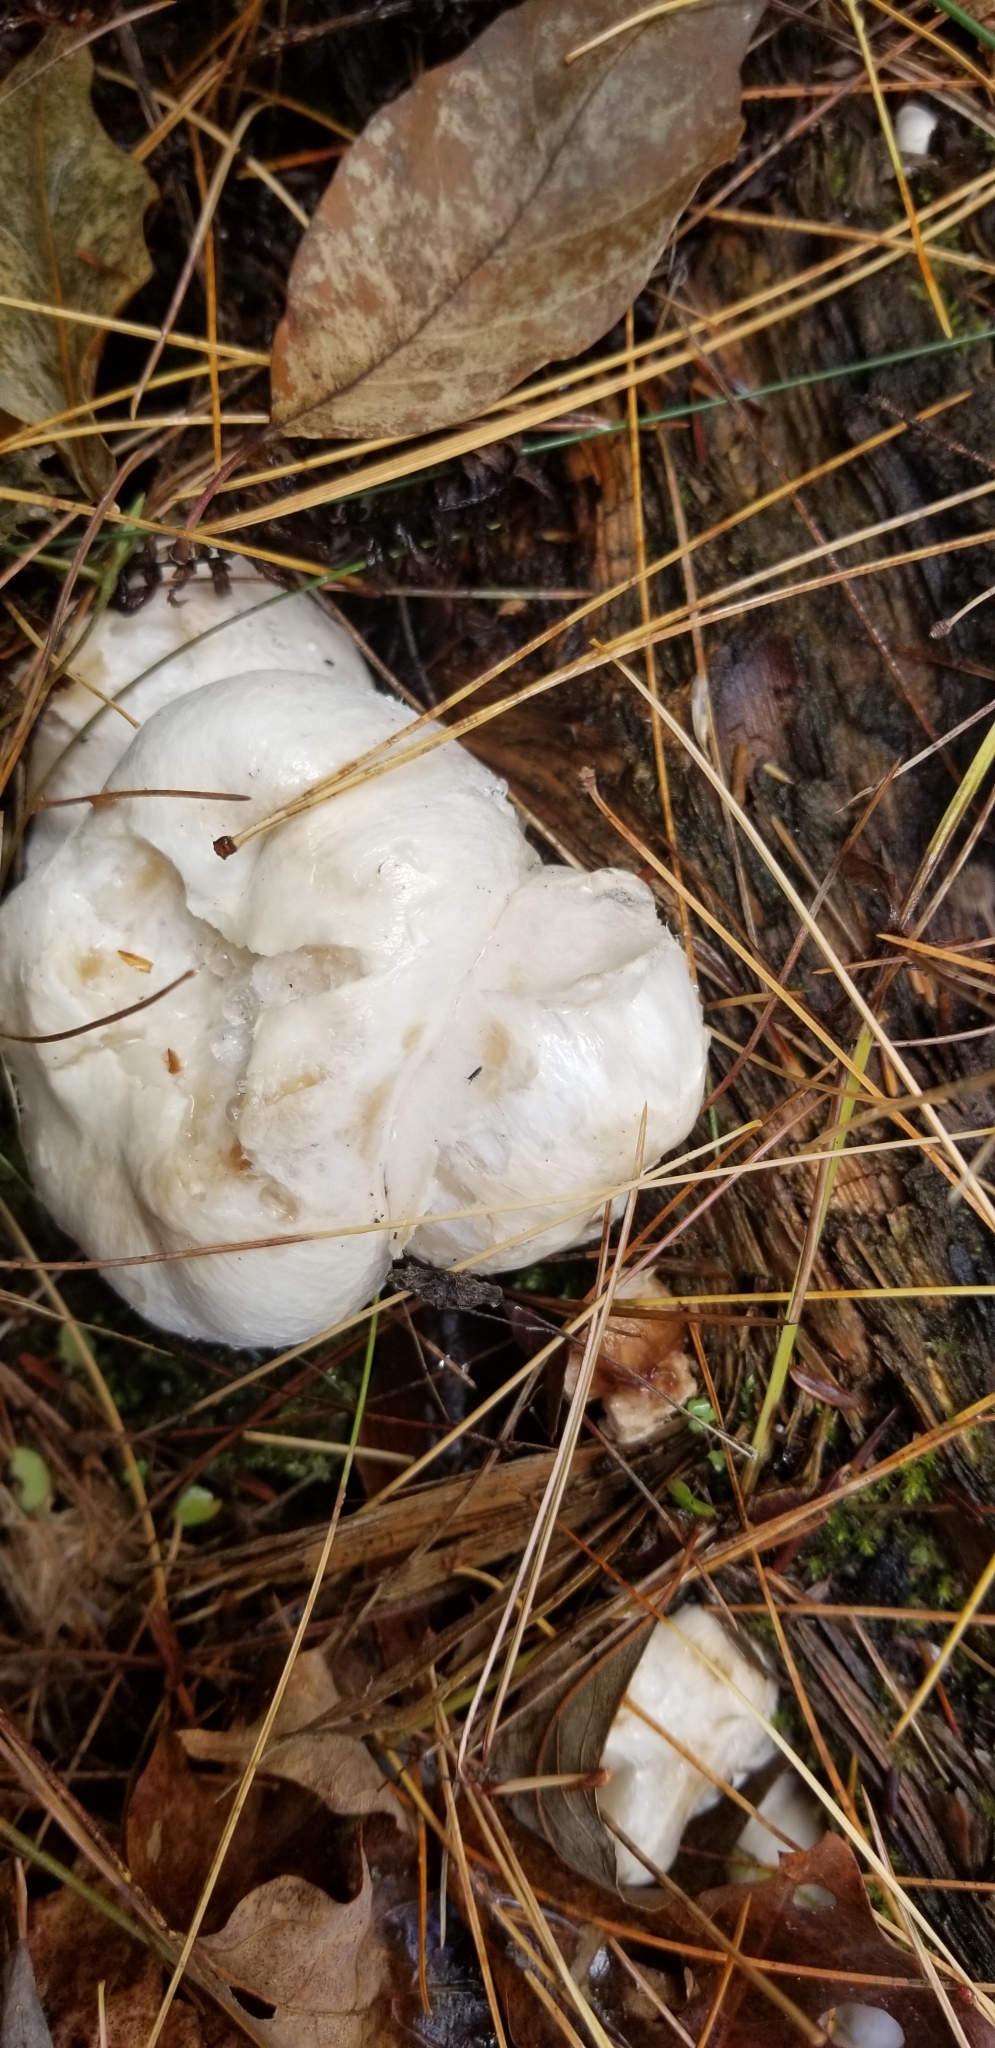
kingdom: Fungi
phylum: Basidiomycota
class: Agaricomycetes
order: Agaricales
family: Entolomataceae
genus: Entoloma
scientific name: Entoloma abortivum
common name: Aborted entoloma
